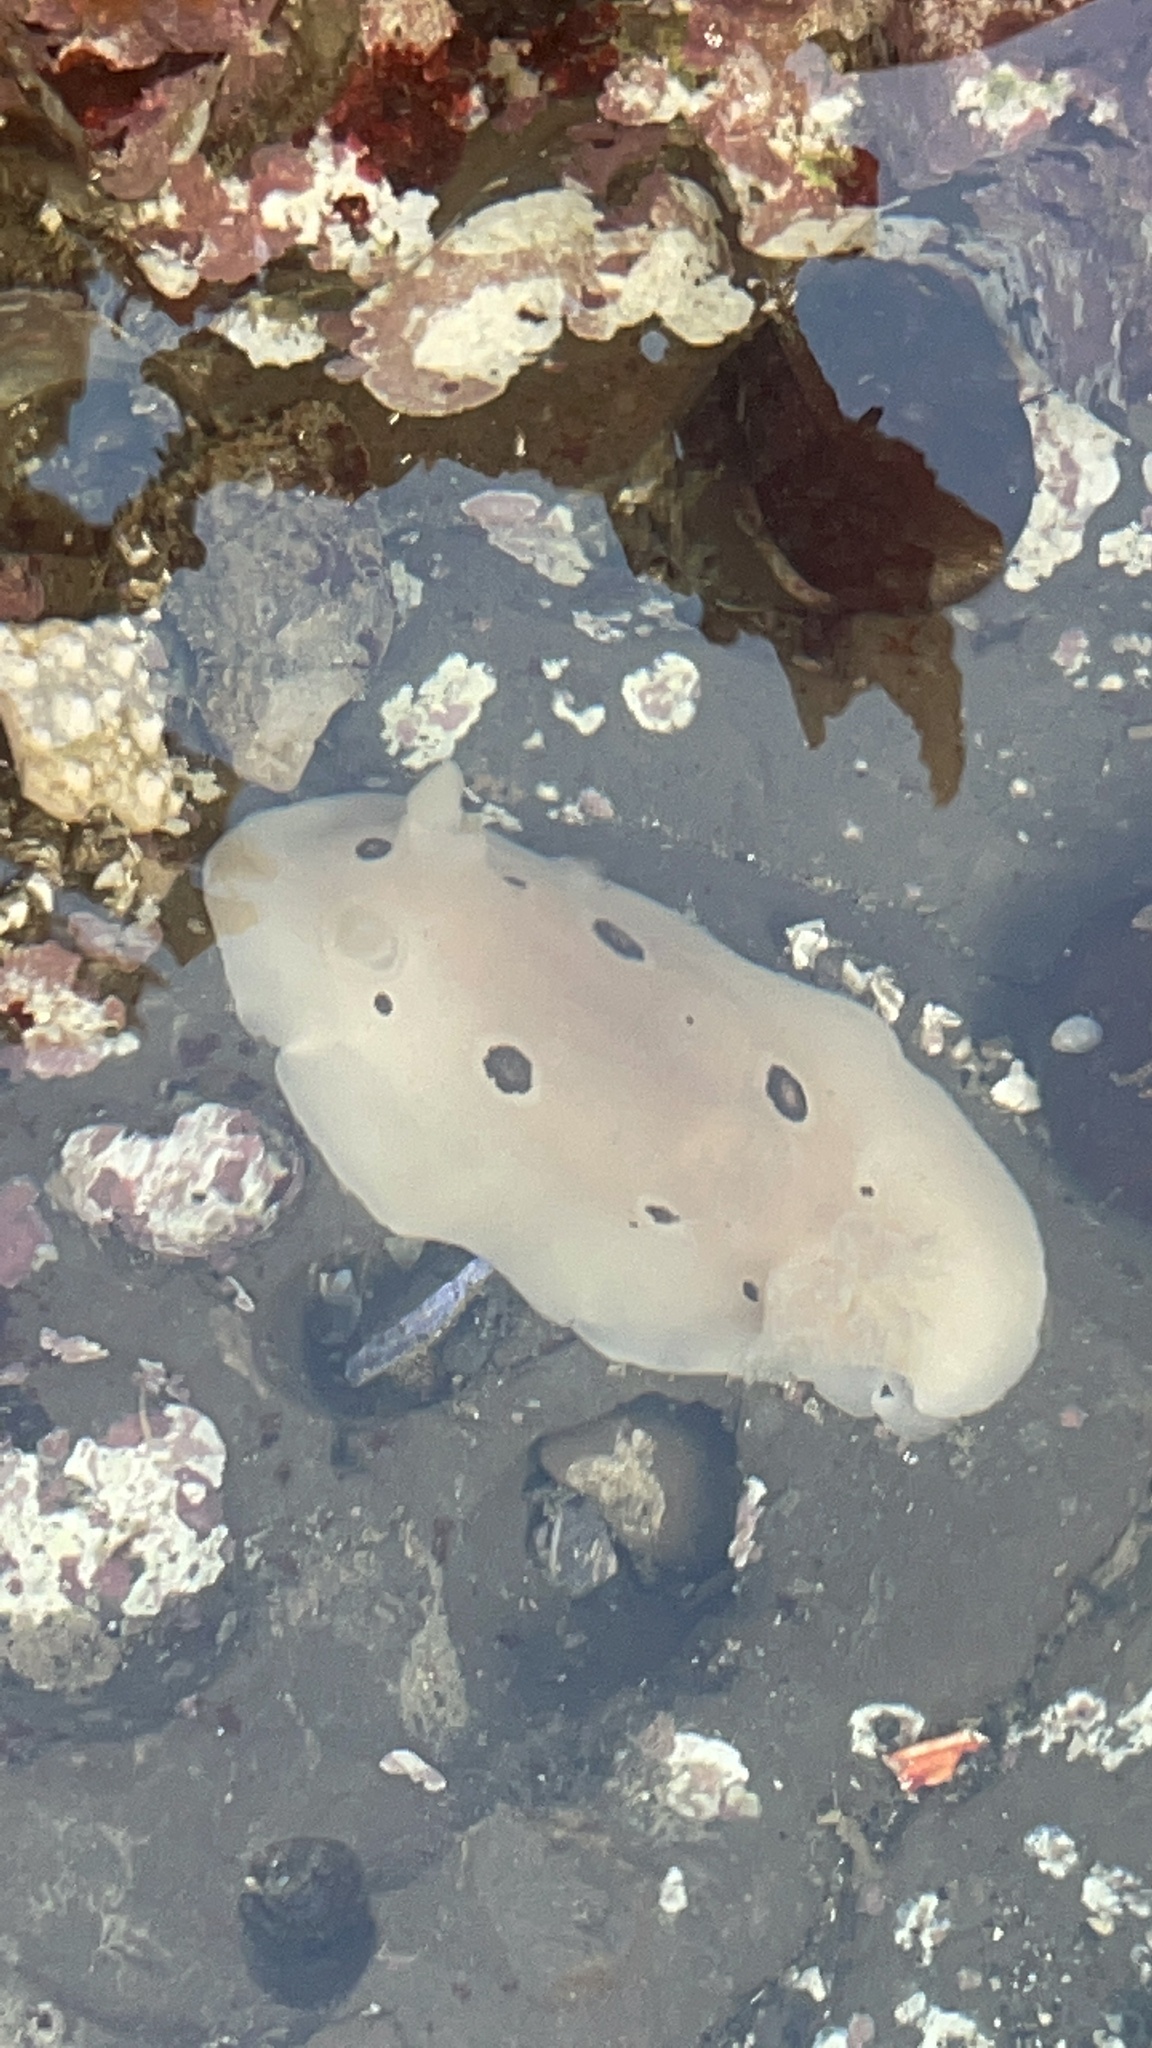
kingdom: Animalia
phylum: Mollusca
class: Gastropoda
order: Nudibranchia
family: Discodorididae
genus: Diaulula
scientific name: Diaulula sandiegensis
